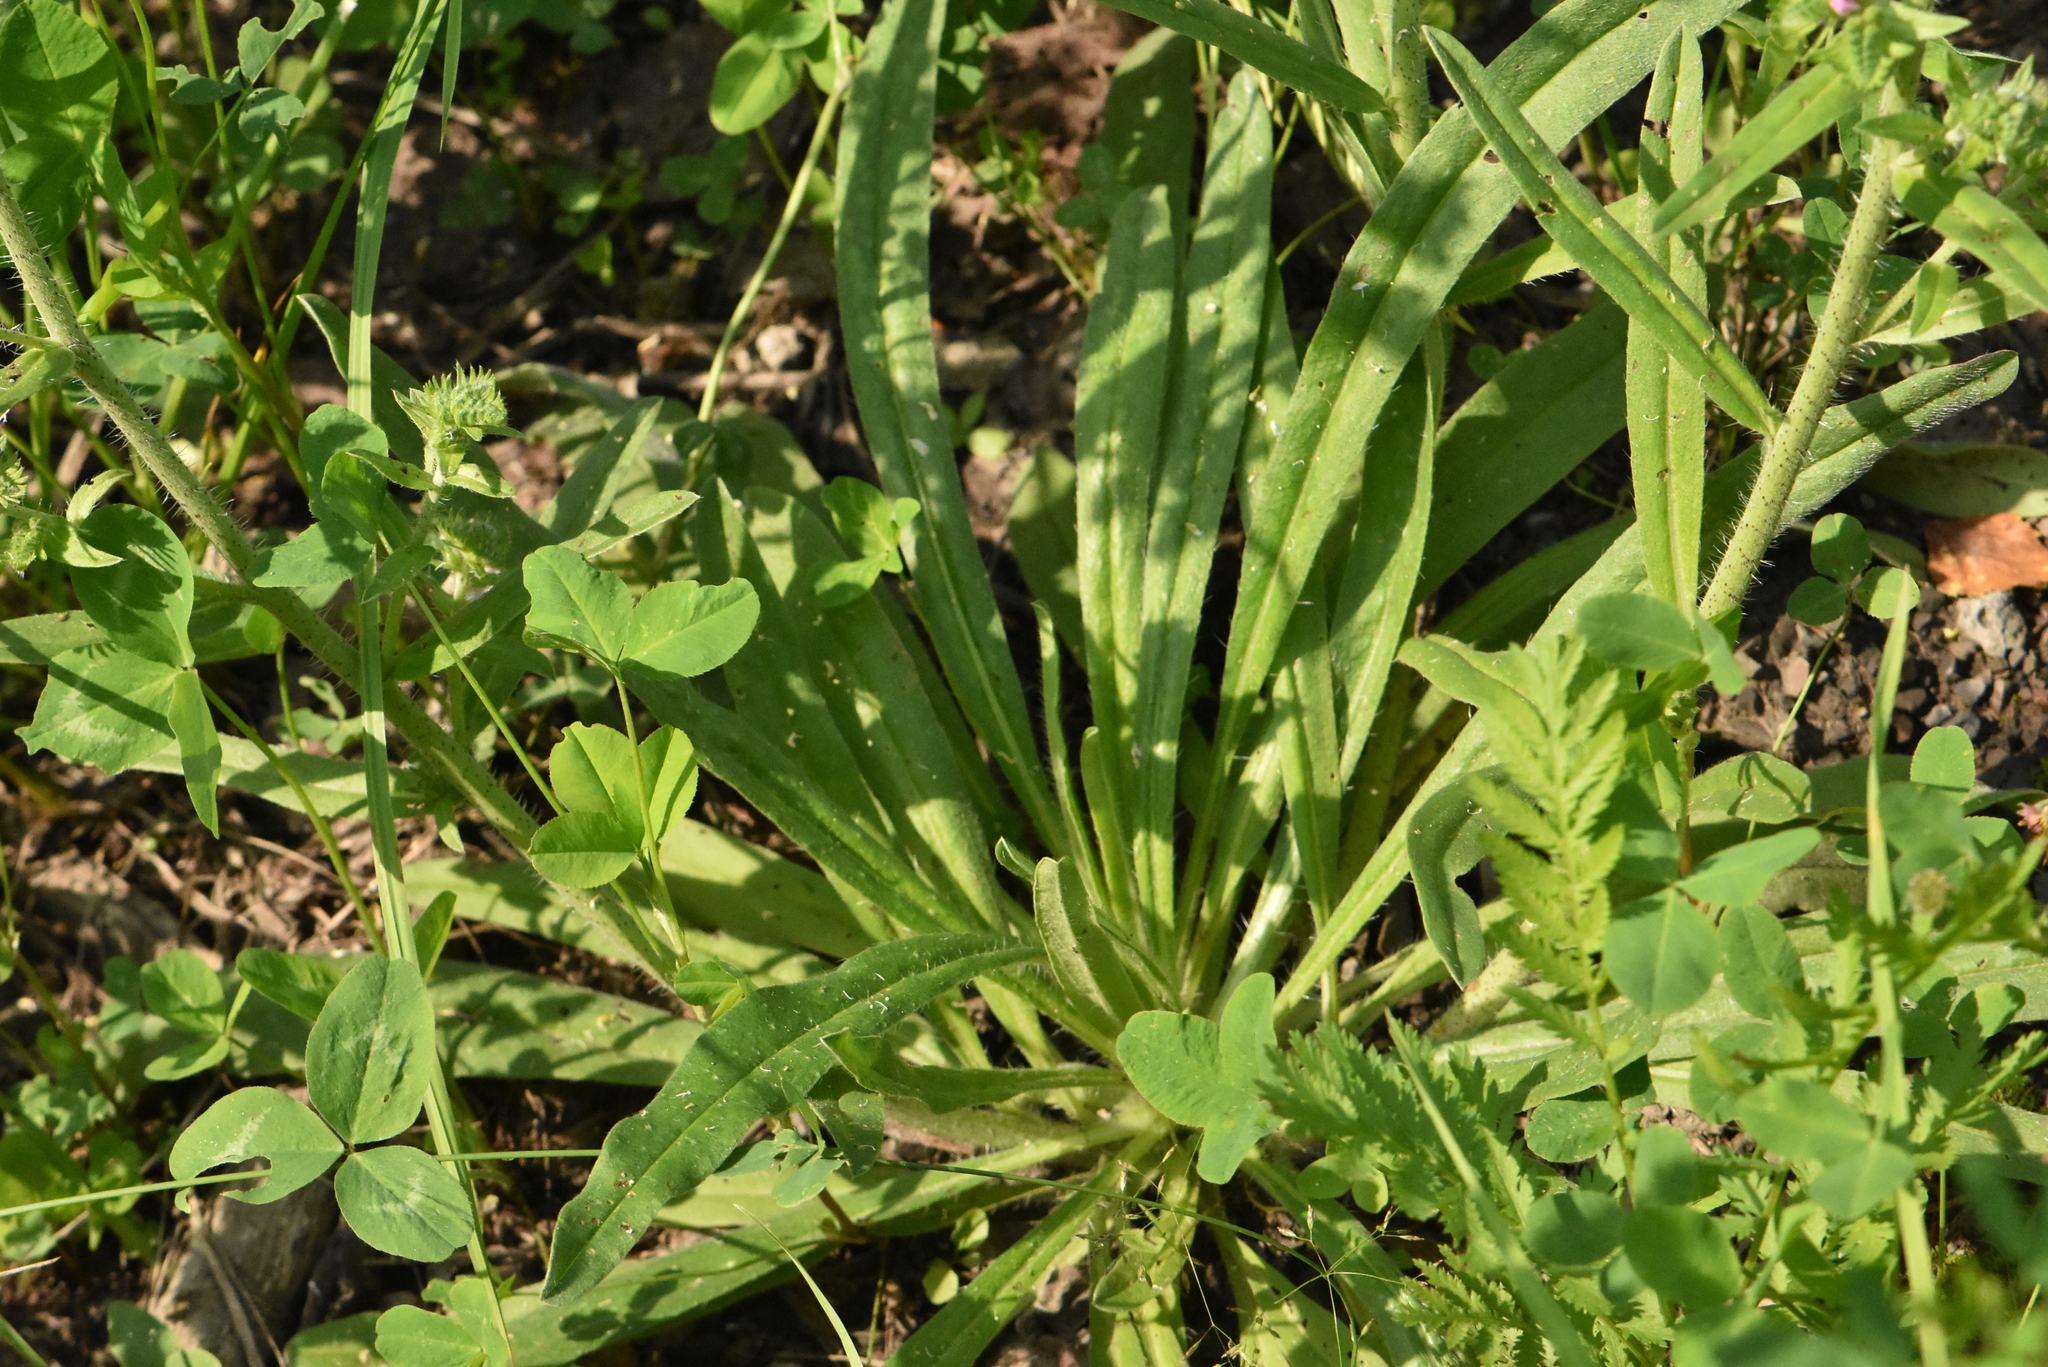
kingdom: Plantae
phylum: Tracheophyta
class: Magnoliopsida
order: Boraginales
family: Boraginaceae
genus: Echium
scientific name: Echium vulgare
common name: Common viper's bugloss
